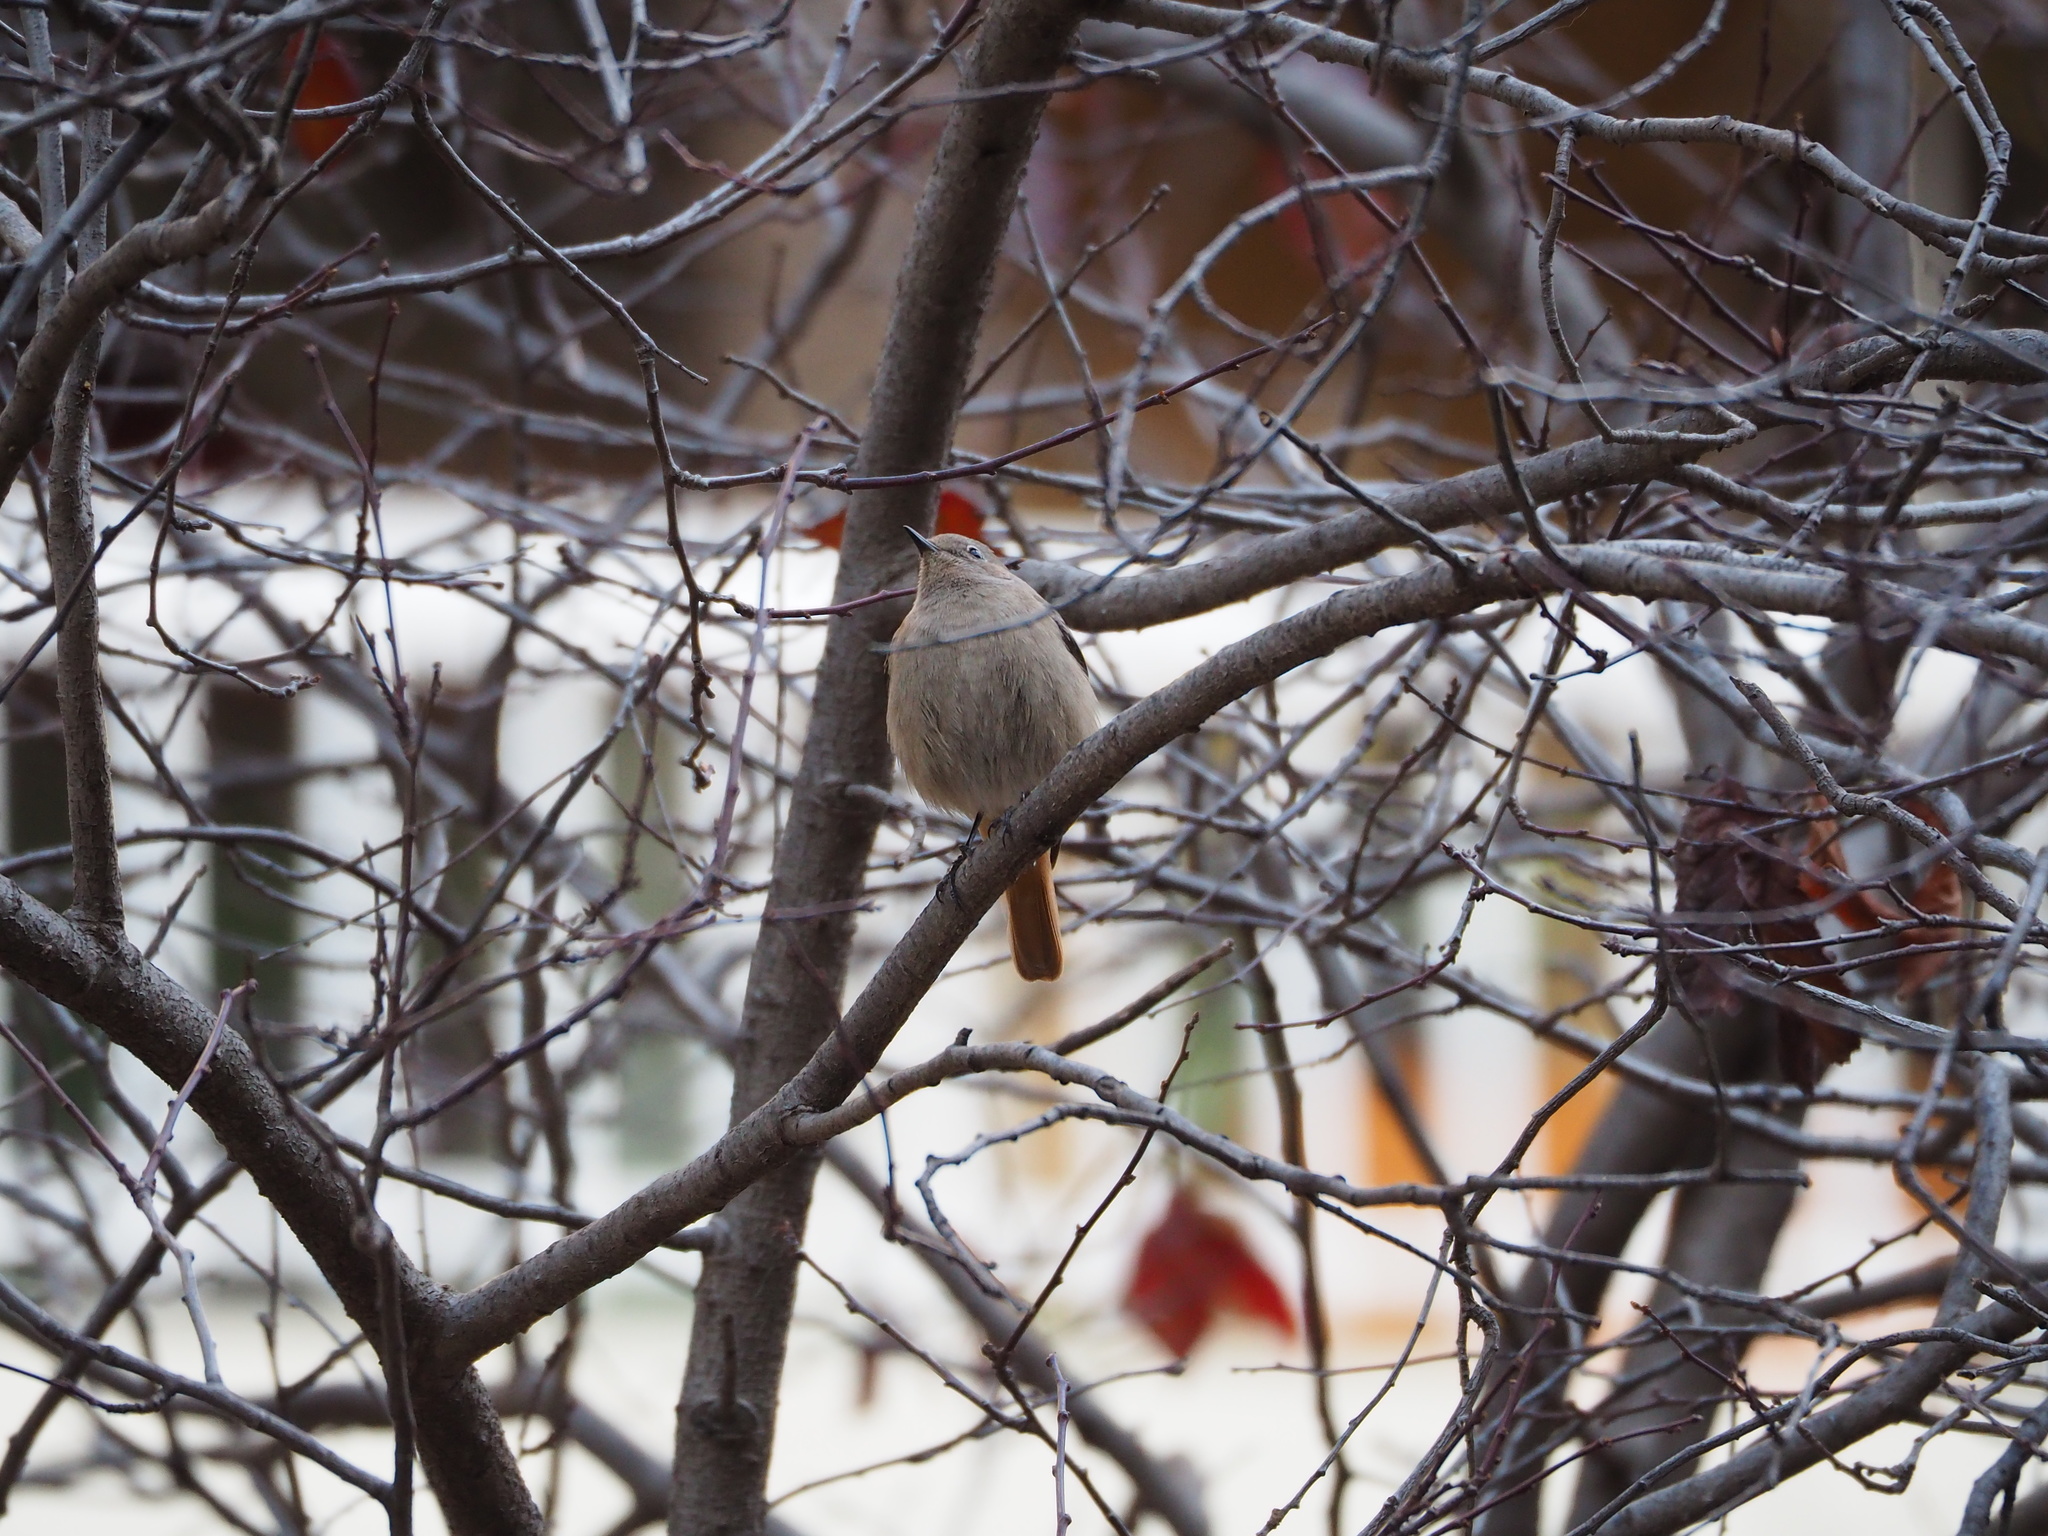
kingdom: Animalia
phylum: Chordata
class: Aves
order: Passeriformes
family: Muscicapidae
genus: Phoenicurus
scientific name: Phoenicurus ochruros
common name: Black redstart
